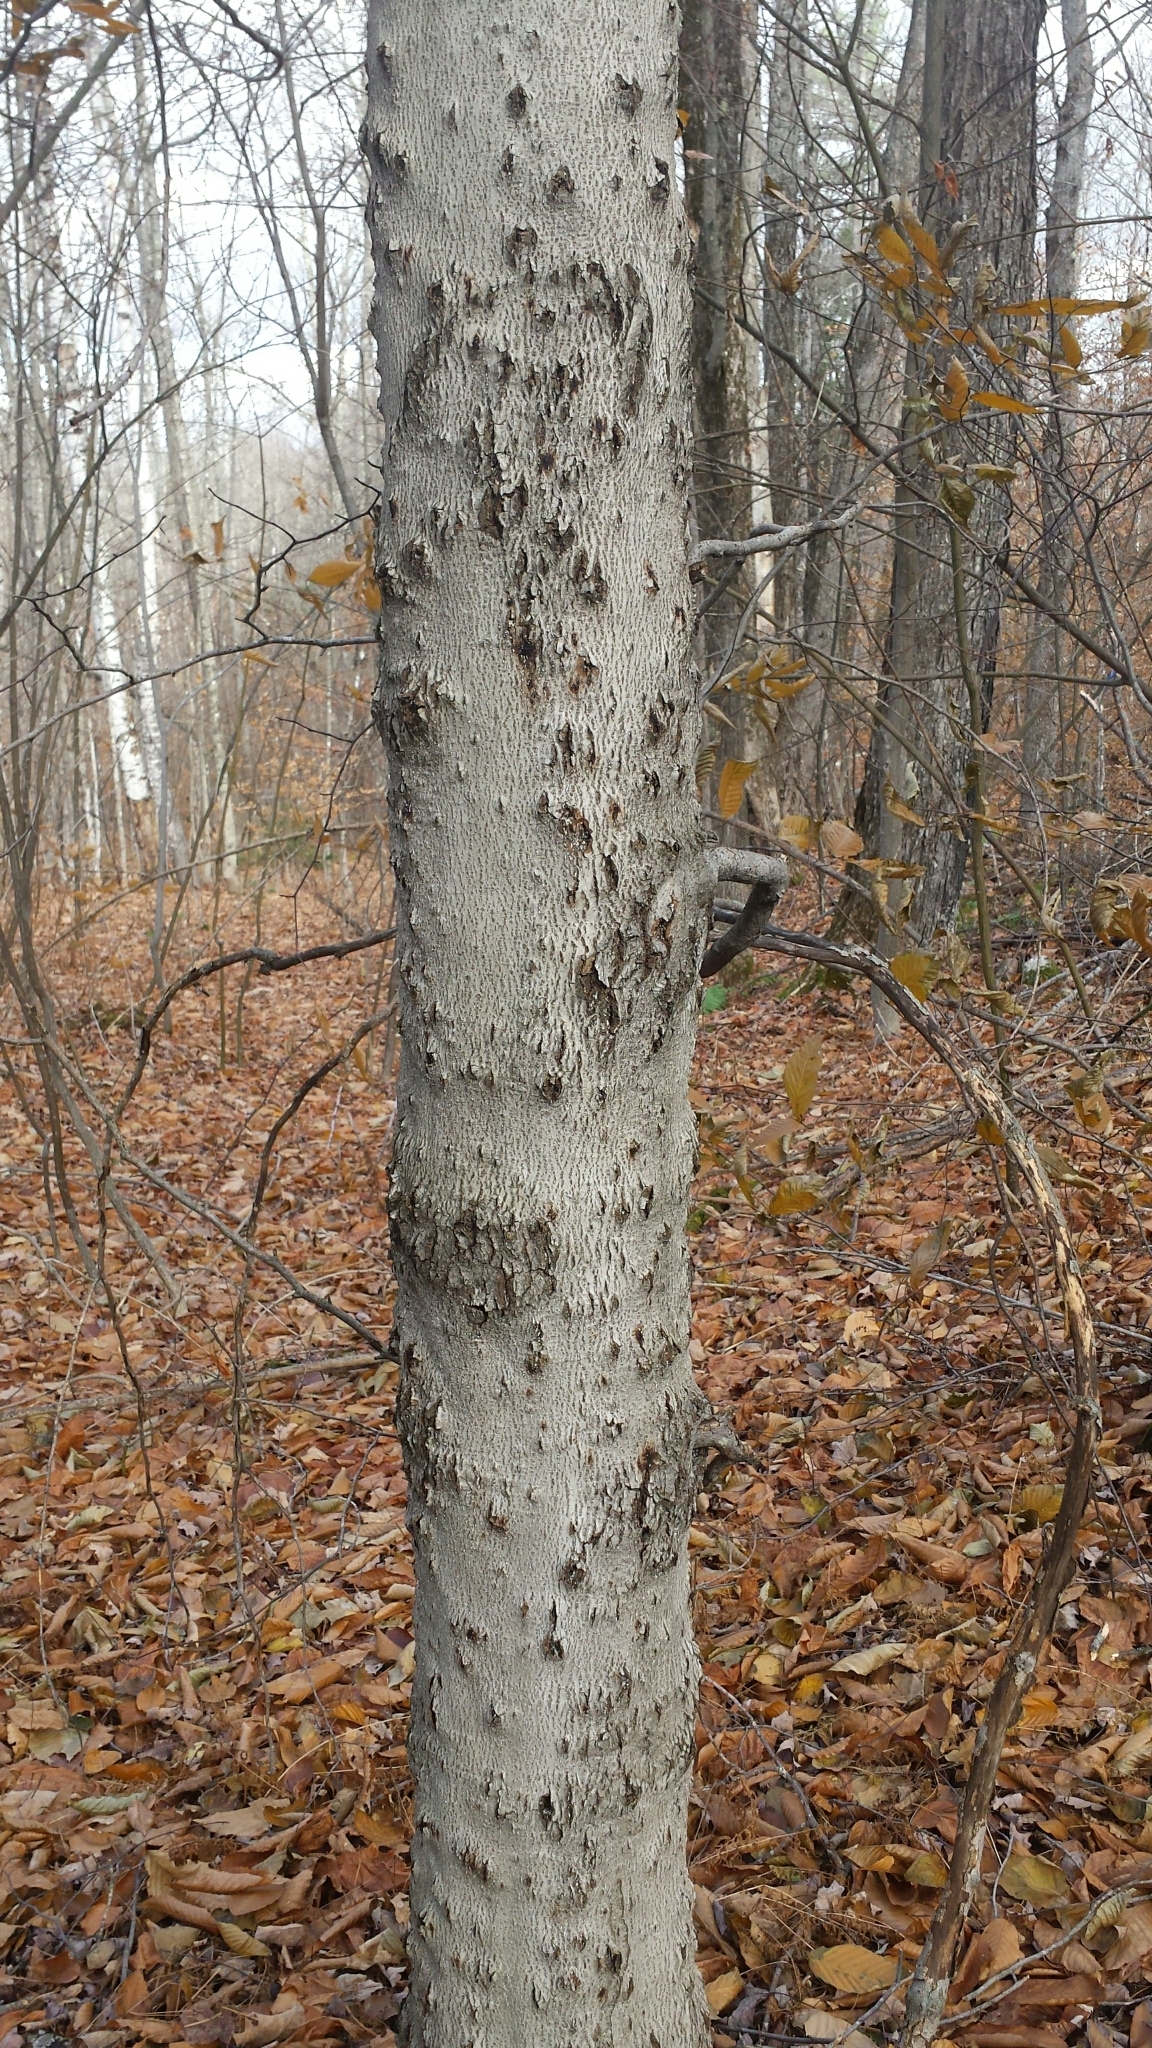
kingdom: Animalia
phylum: Arthropoda
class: Insecta
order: Hemiptera
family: Eriococcidae
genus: Cryptococcus
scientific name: Cryptococcus fagisuga
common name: Beech scale
